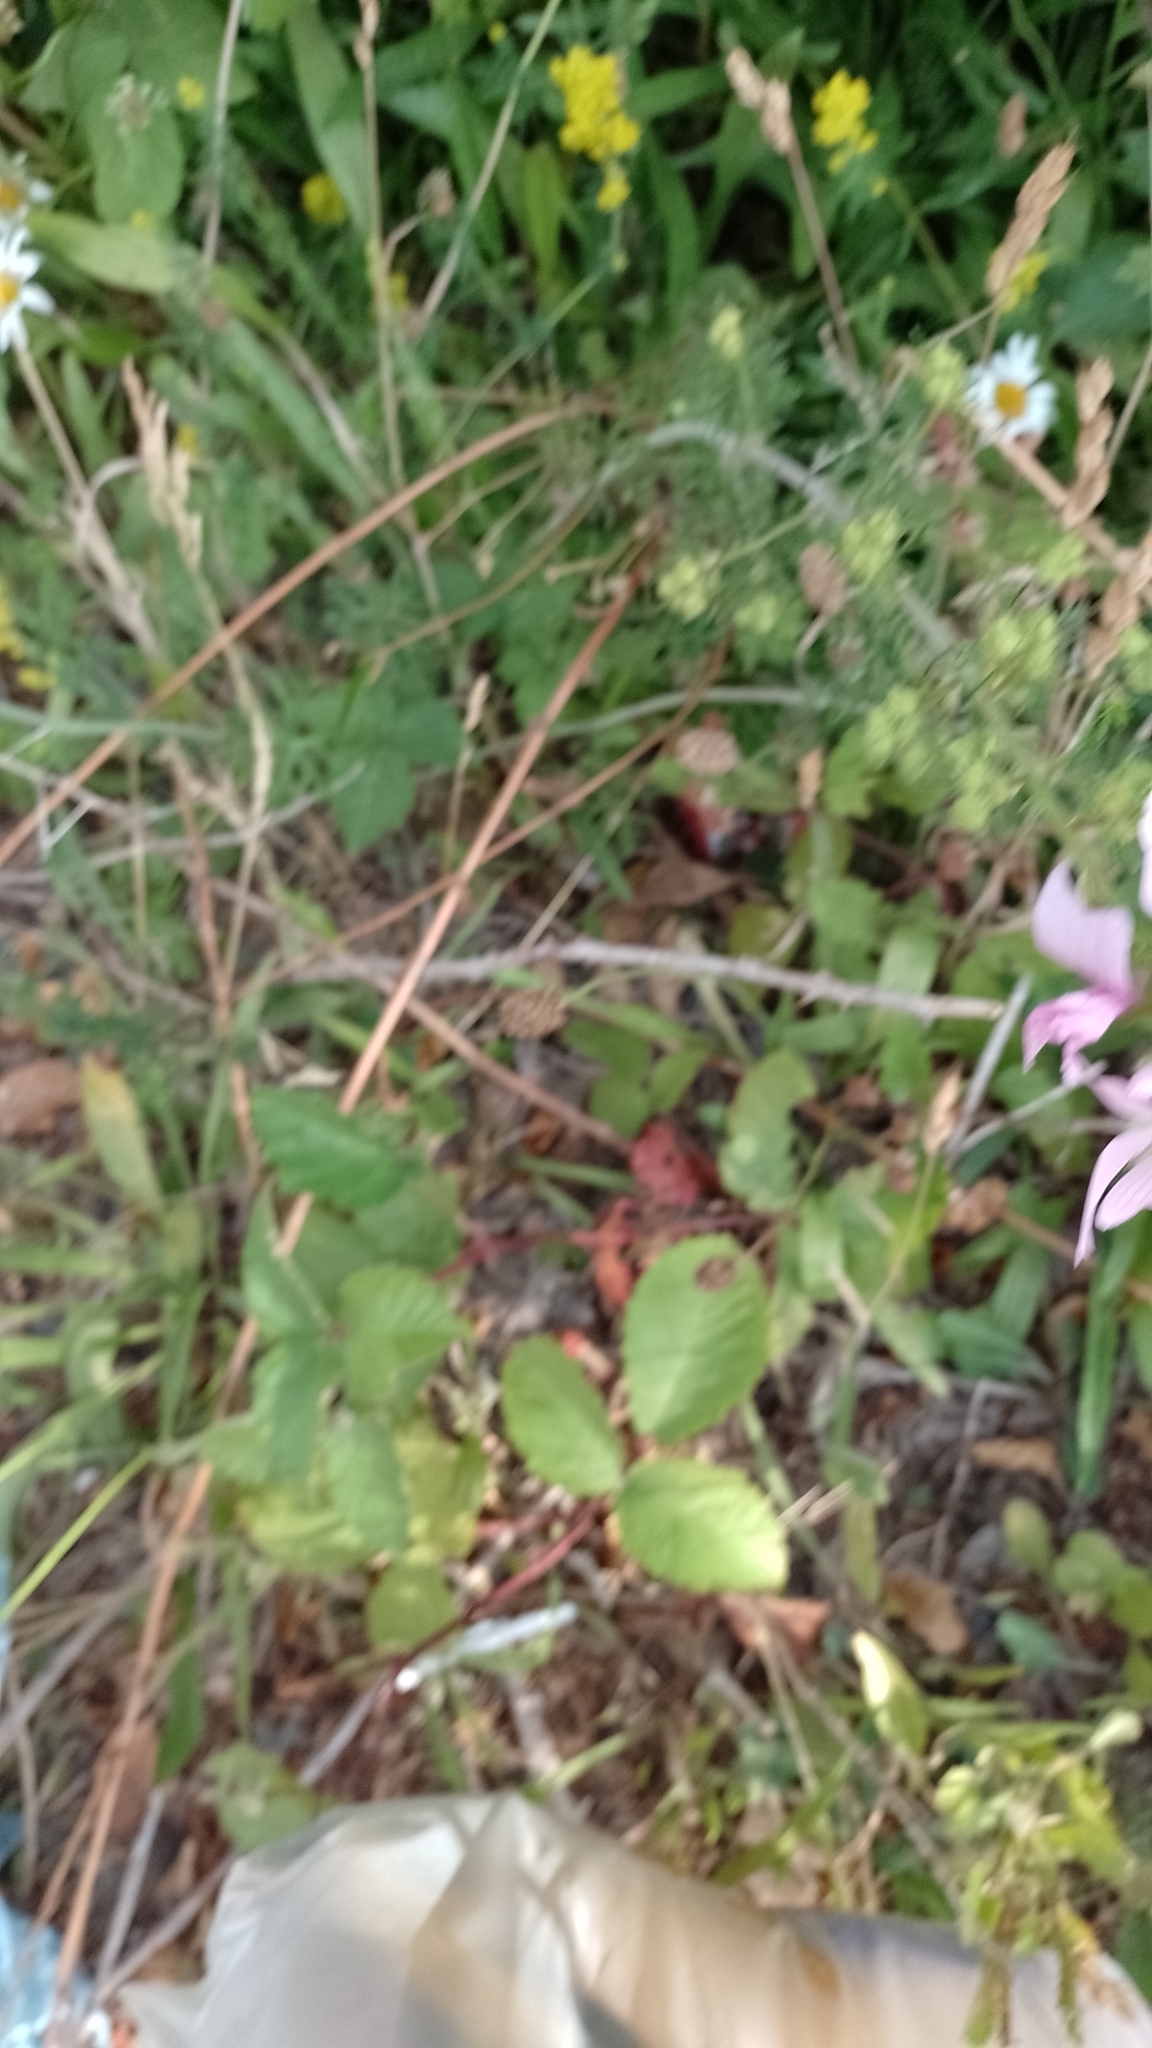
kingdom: Plantae
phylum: Tracheophyta
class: Magnoliopsida
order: Malvales
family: Malvaceae
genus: Malva
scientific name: Malva moschata
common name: Musk mallow
